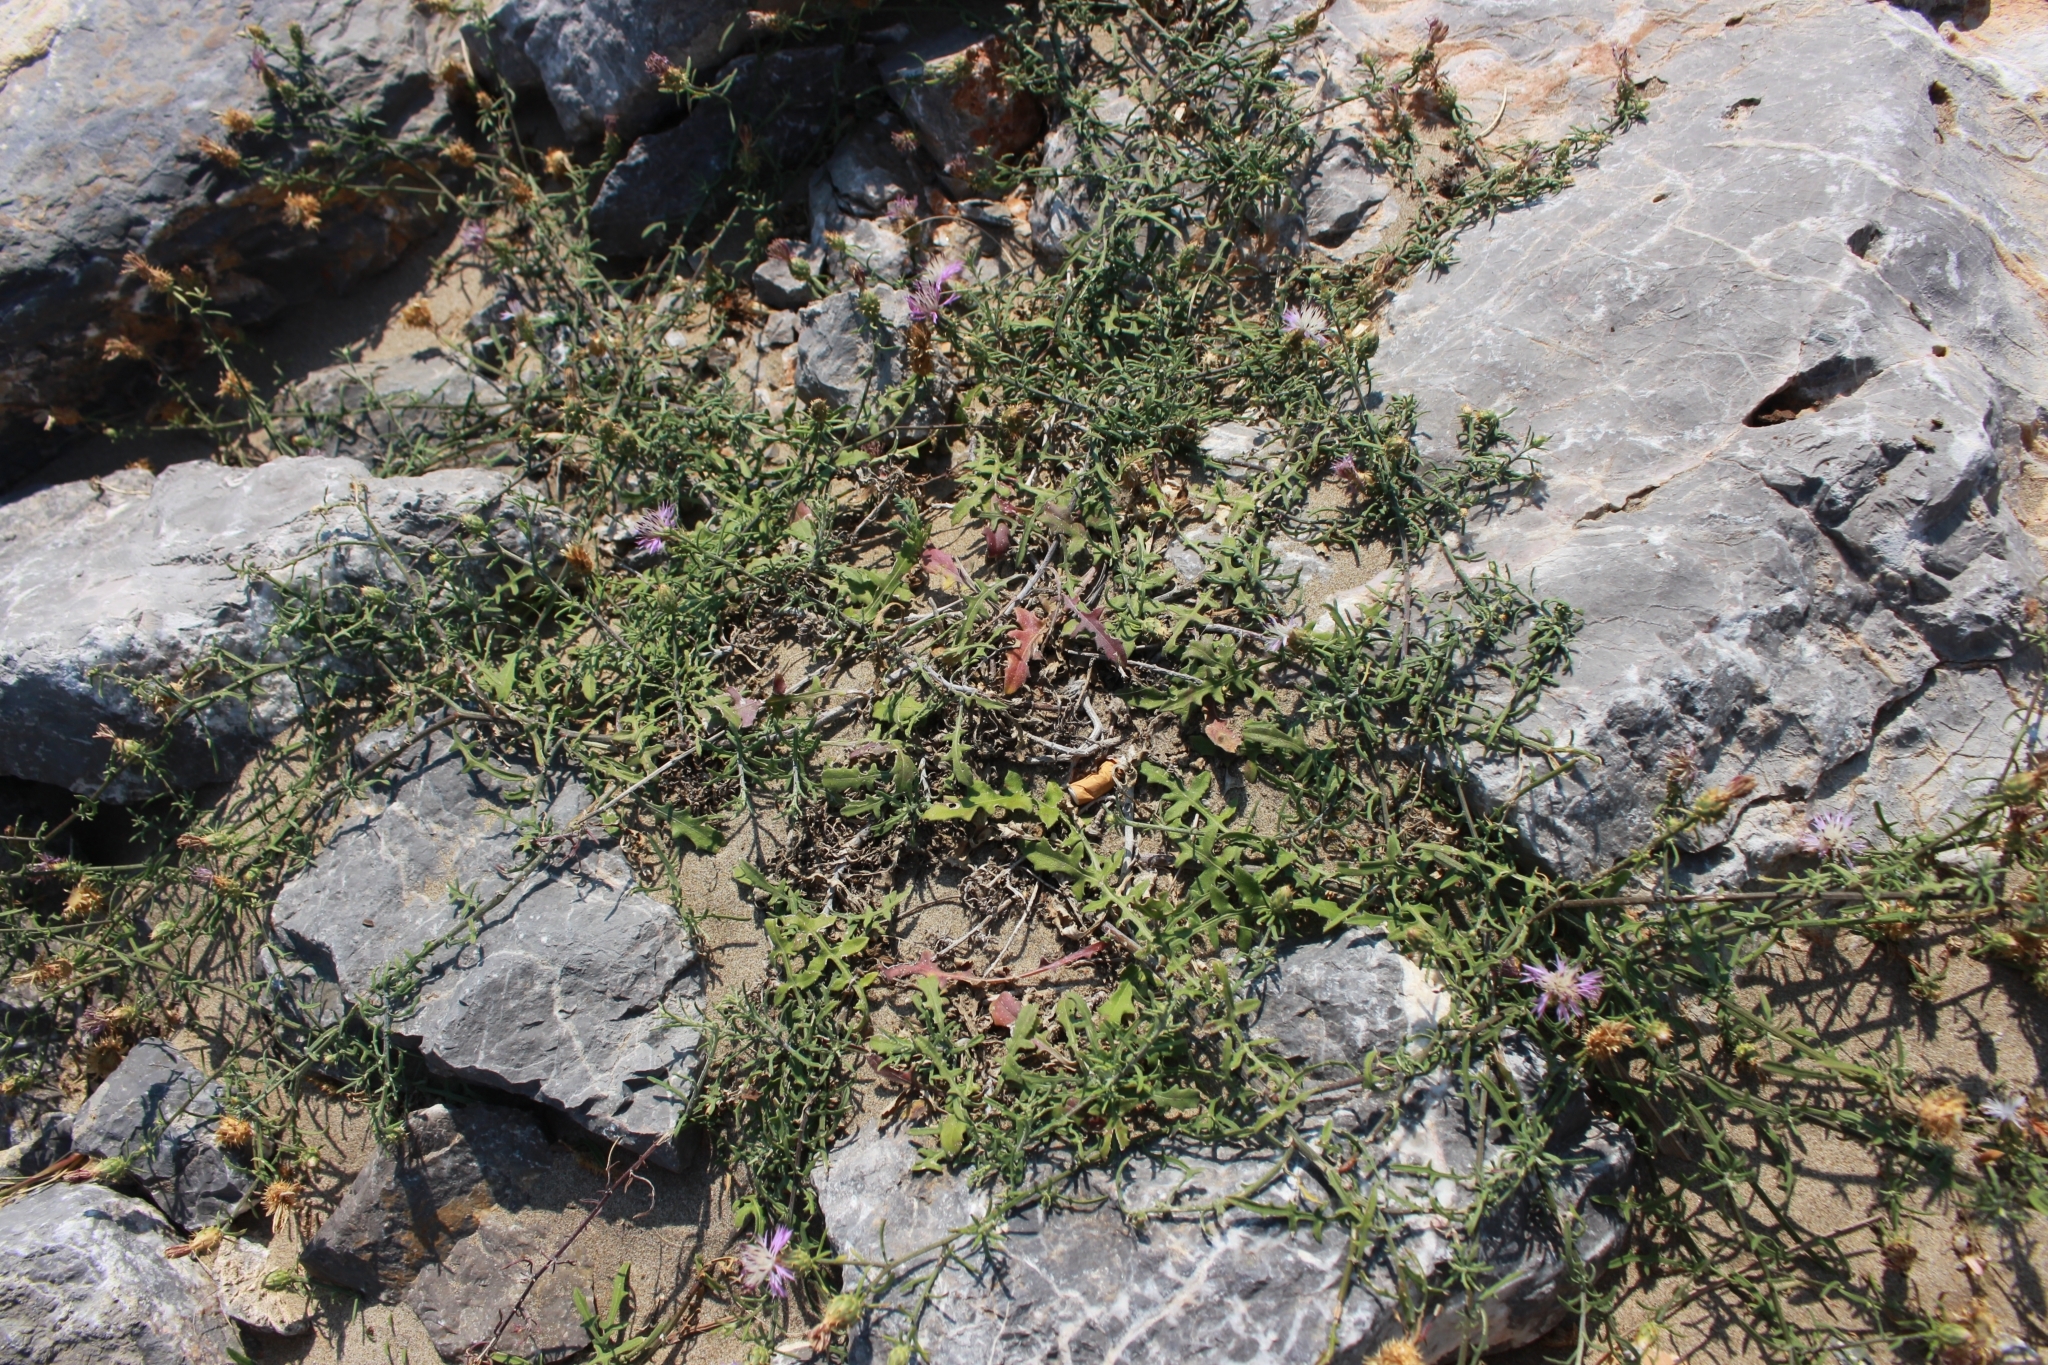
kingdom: Plantae
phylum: Tracheophyta
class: Magnoliopsida
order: Asterales
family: Asteraceae
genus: Centaurea
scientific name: Centaurea aspera
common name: Rough star-thistle
